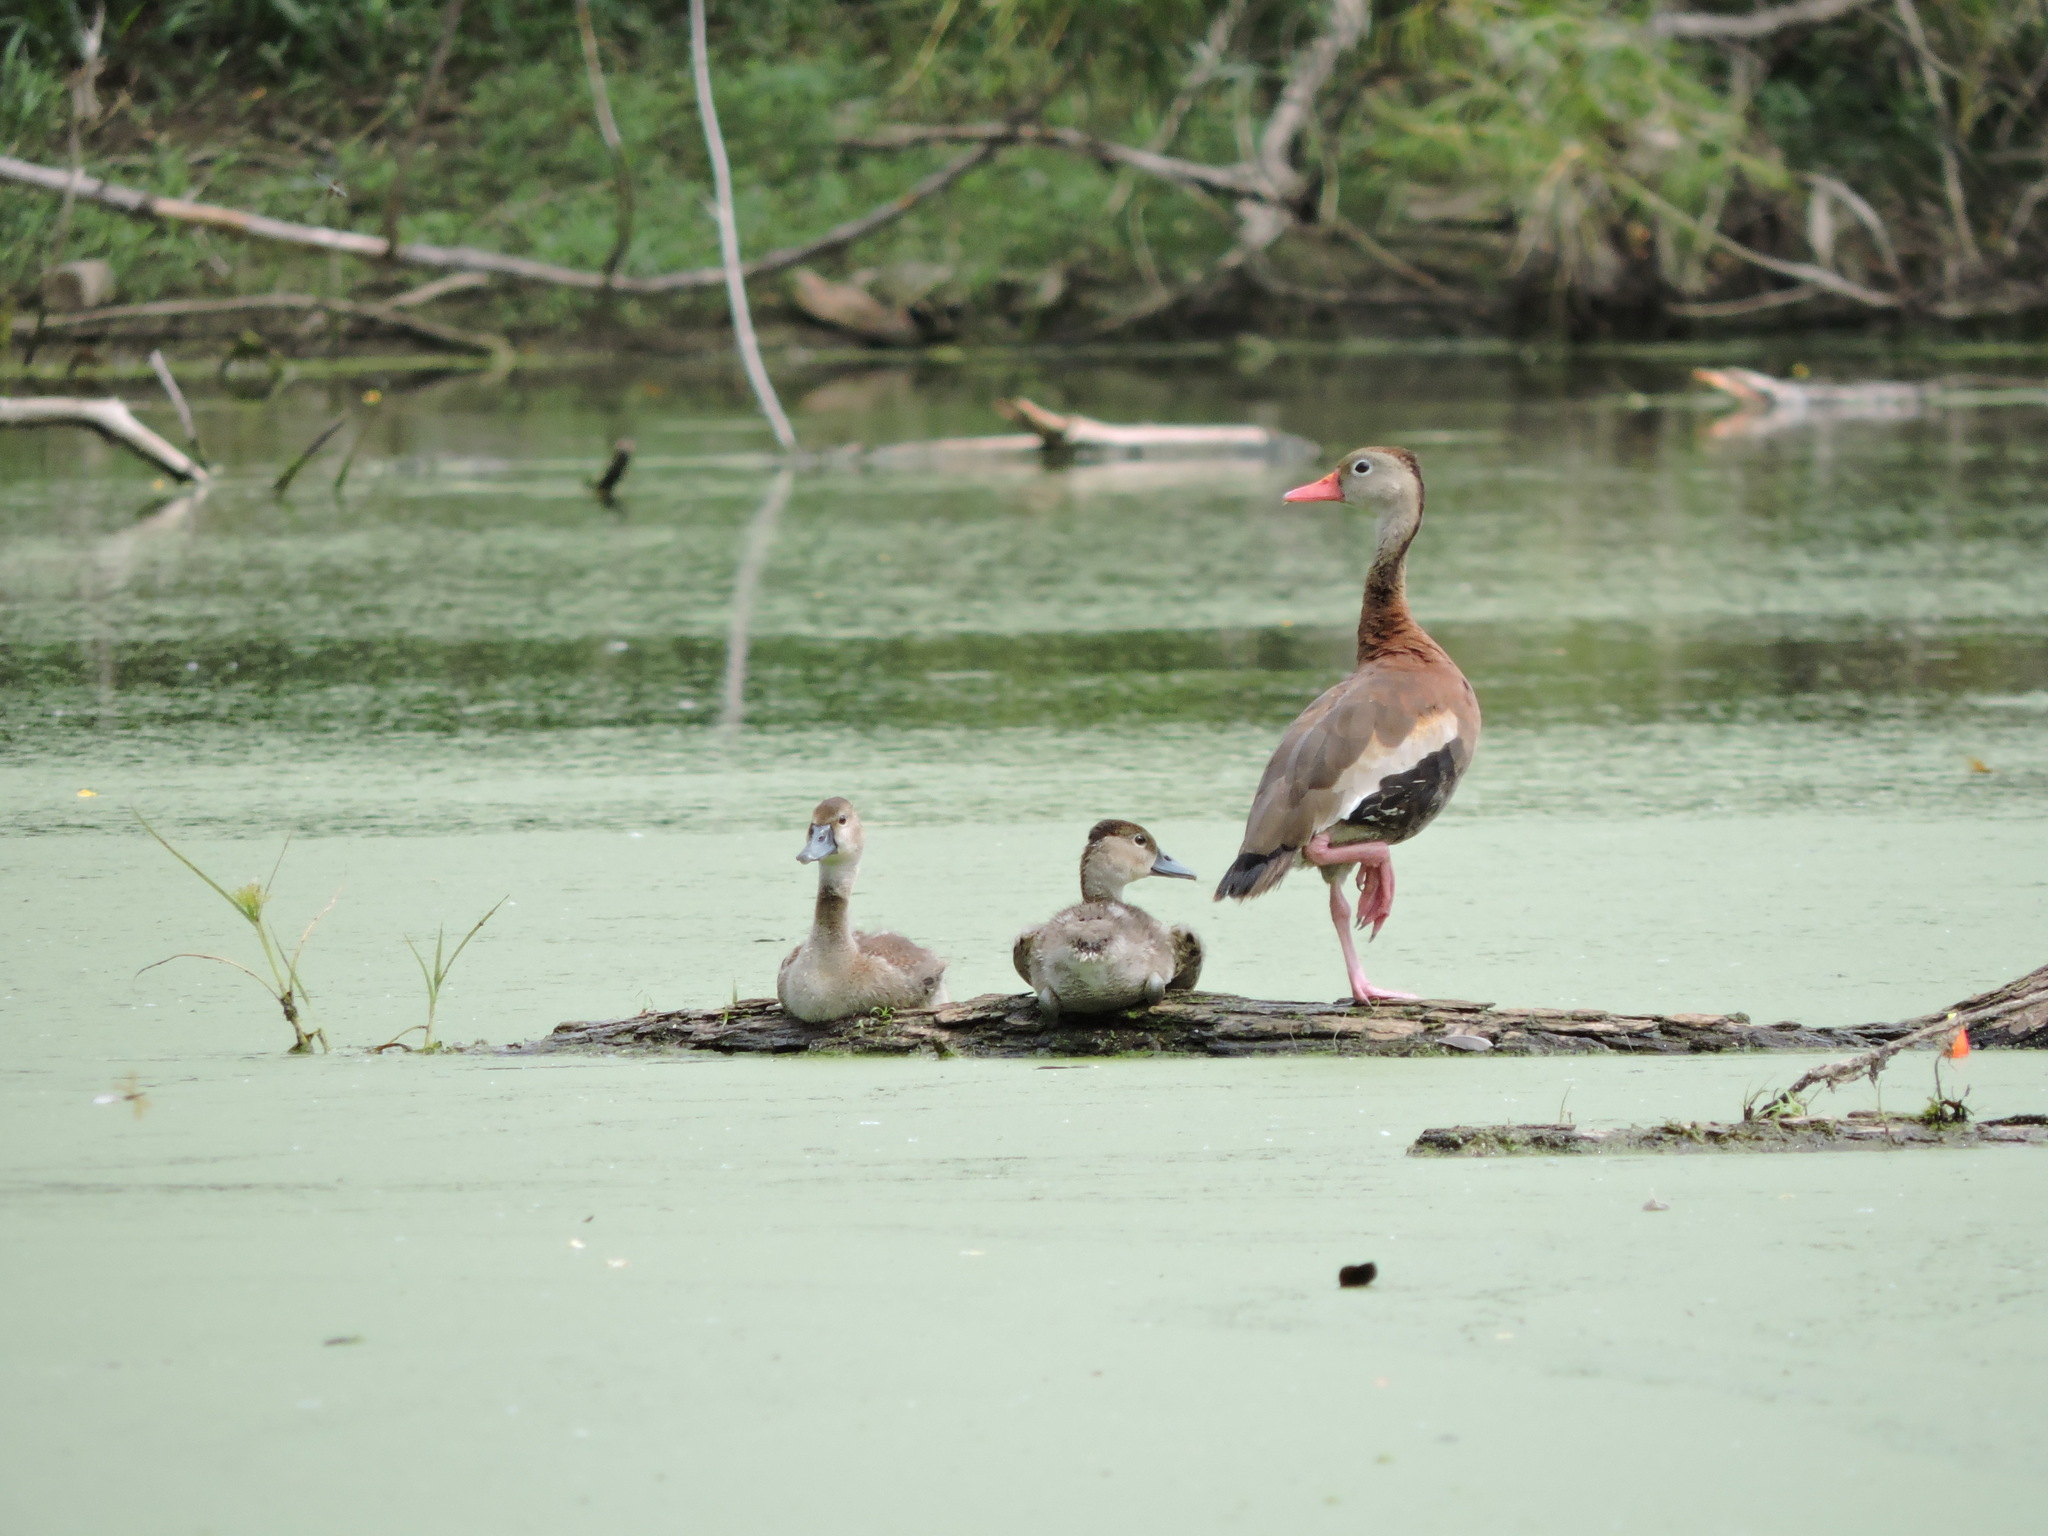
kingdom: Animalia
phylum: Chordata
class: Aves
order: Anseriformes
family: Anatidae
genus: Dendrocygna
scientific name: Dendrocygna autumnalis
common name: Black-bellied whistling duck
